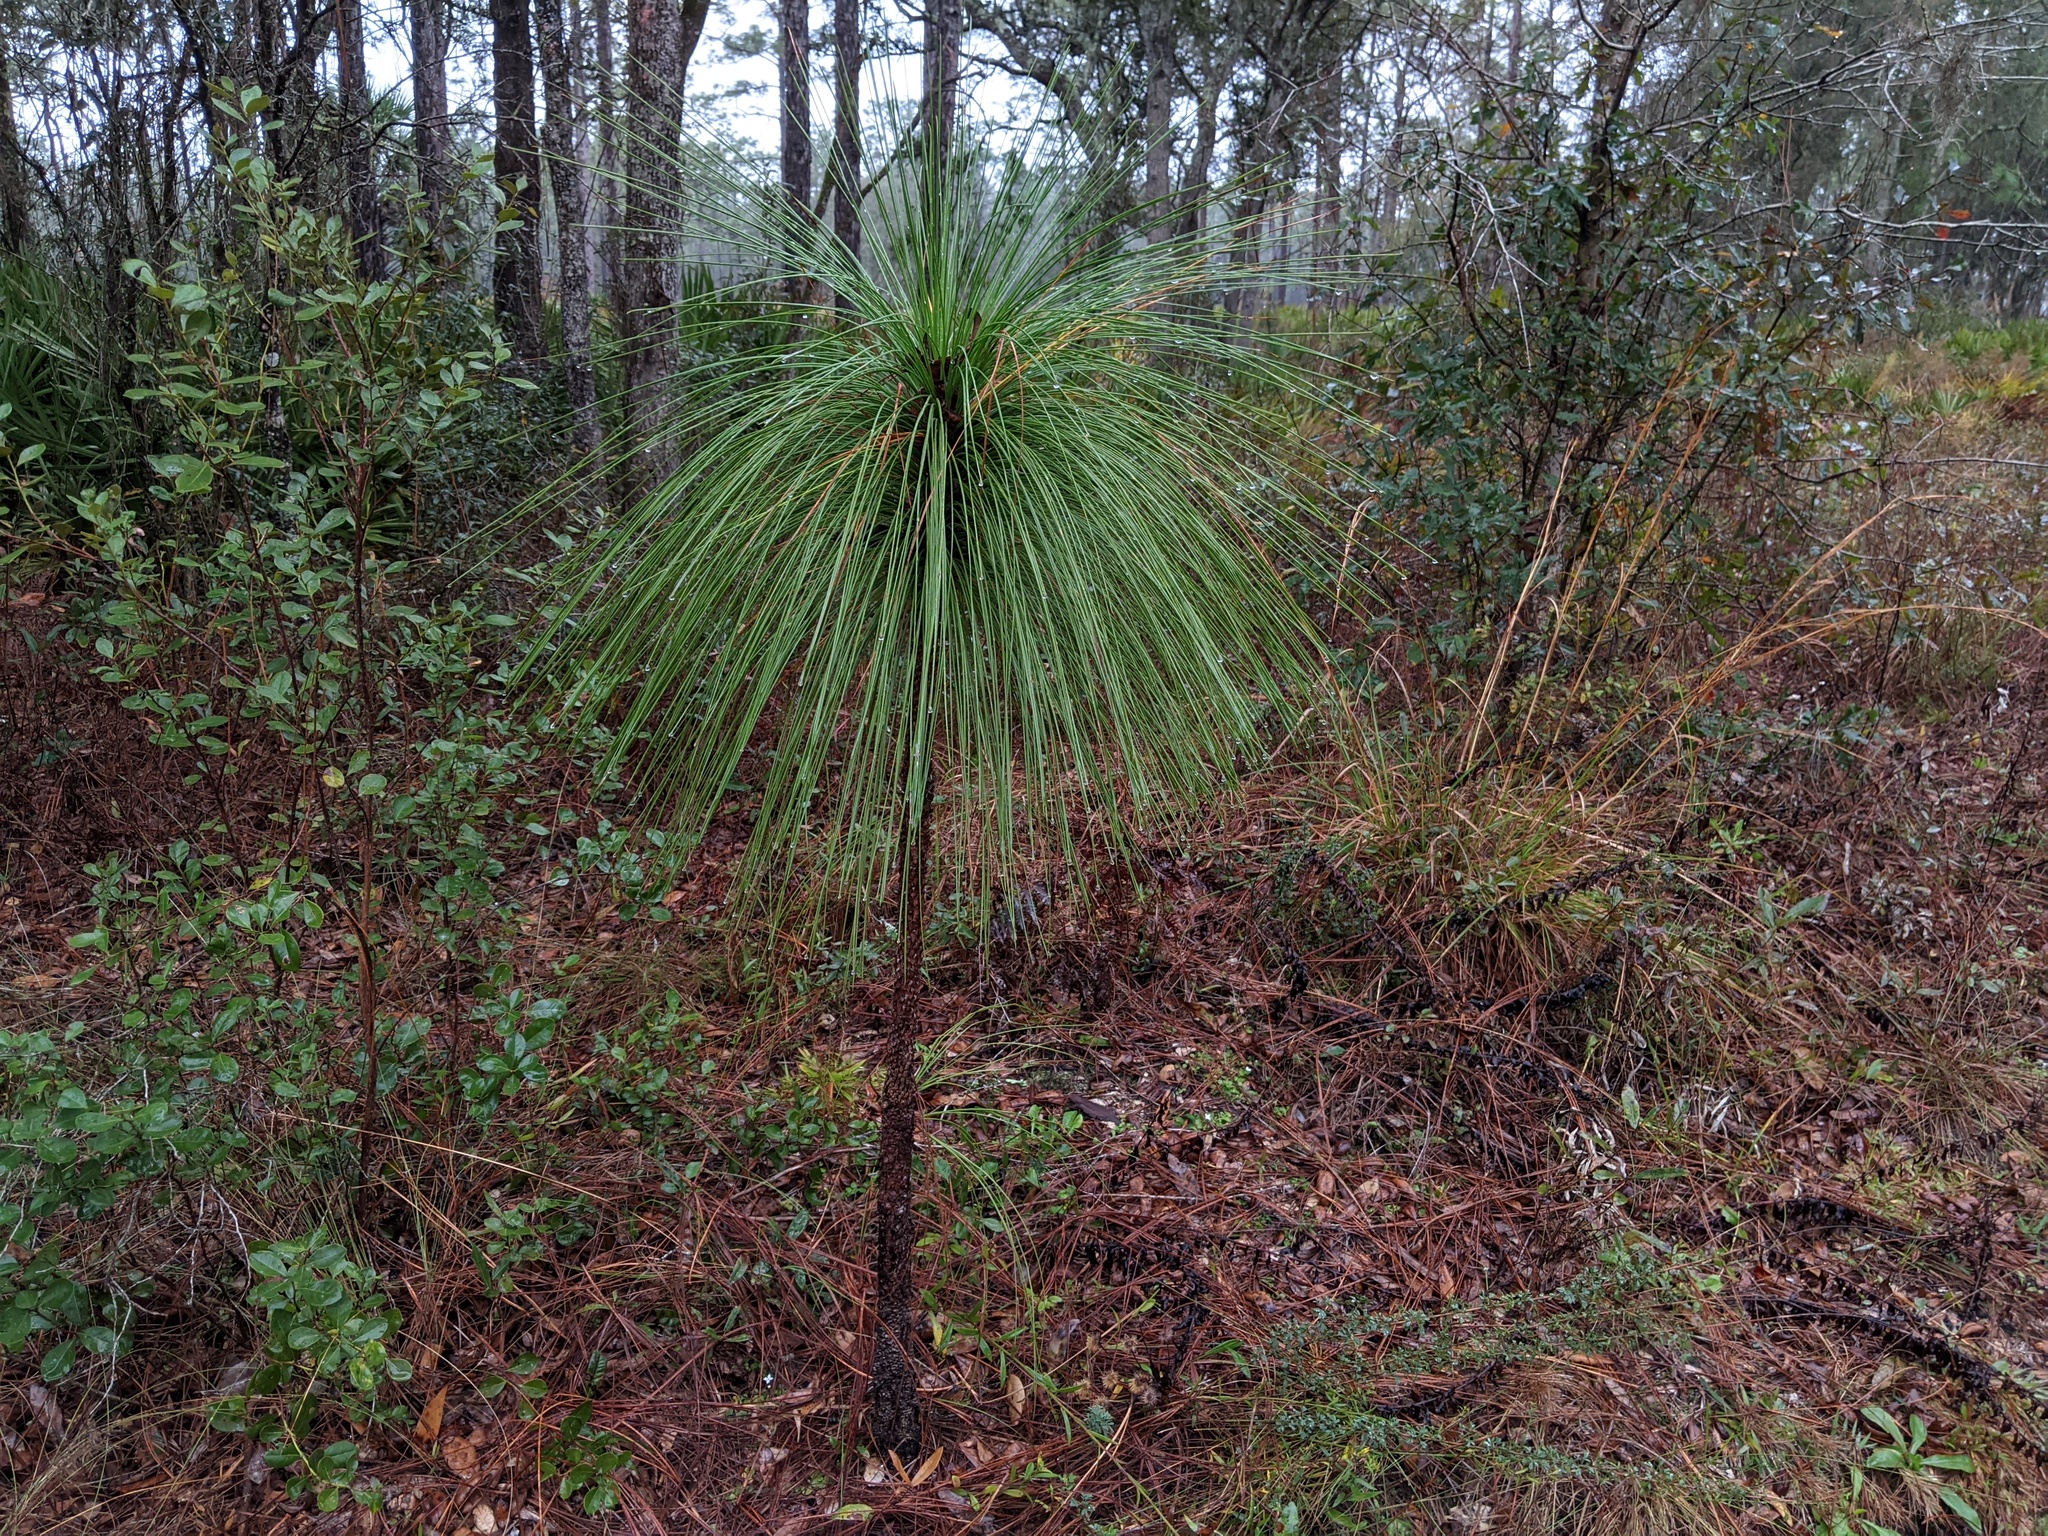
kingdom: Plantae
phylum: Tracheophyta
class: Pinopsida
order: Pinales
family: Pinaceae
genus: Pinus
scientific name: Pinus palustris
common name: Longleaf pine
